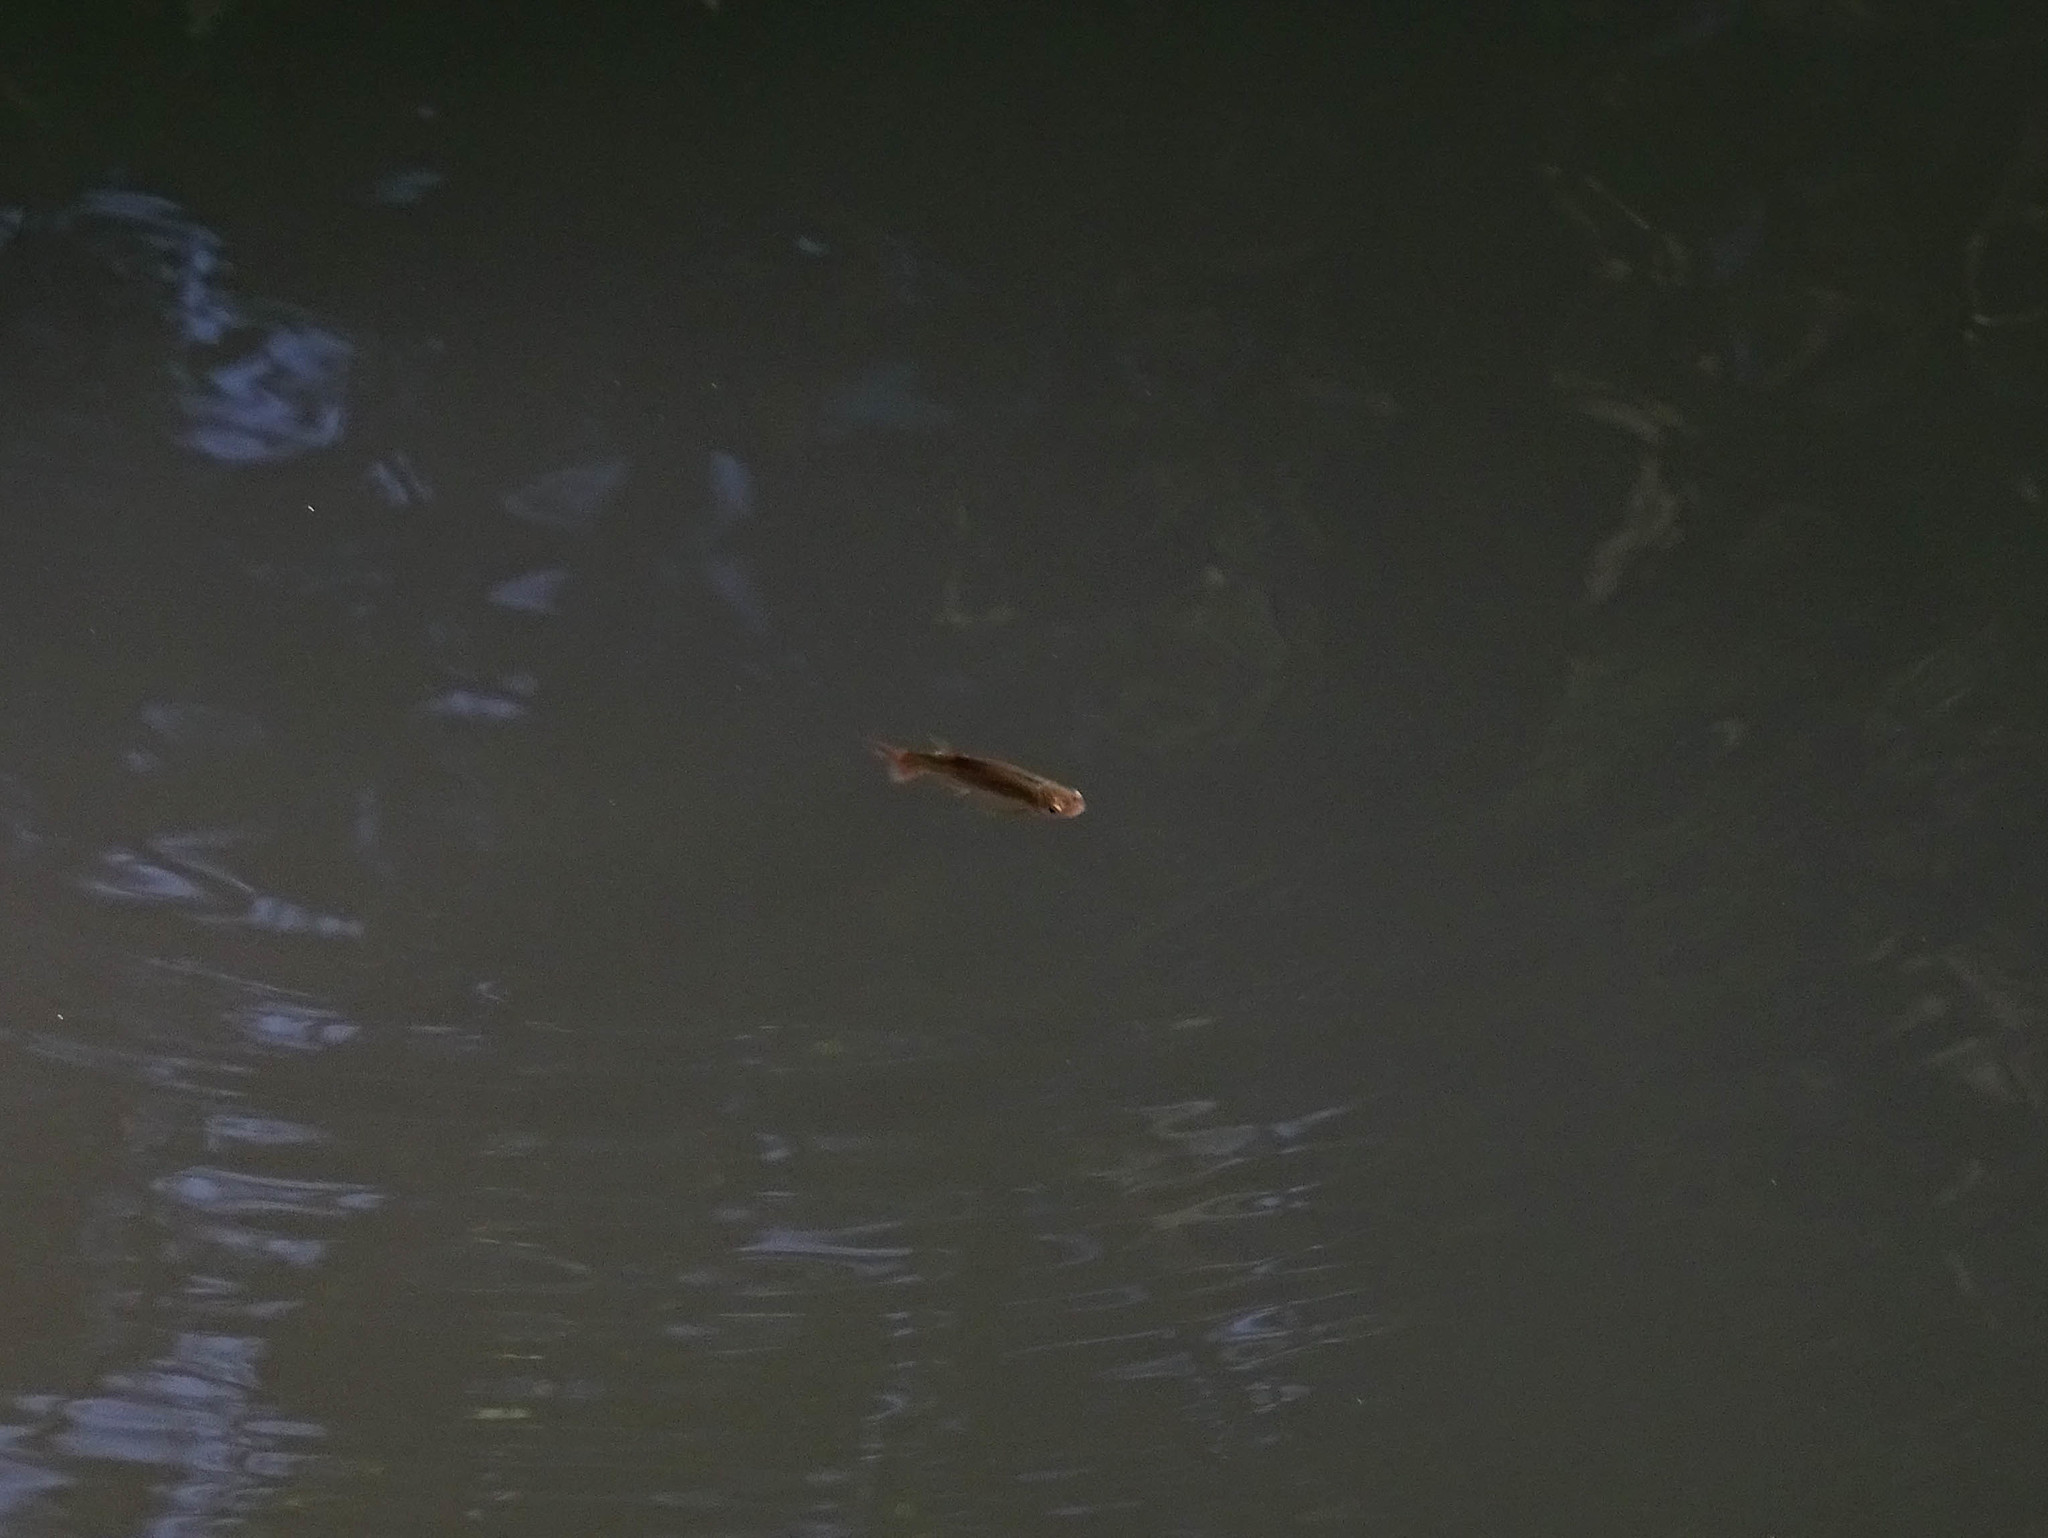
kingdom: Animalia
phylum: Chordata
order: Cypriniformes
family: Cyprinidae
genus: Squalius
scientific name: Squalius ghigii
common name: Rhodes minnow
